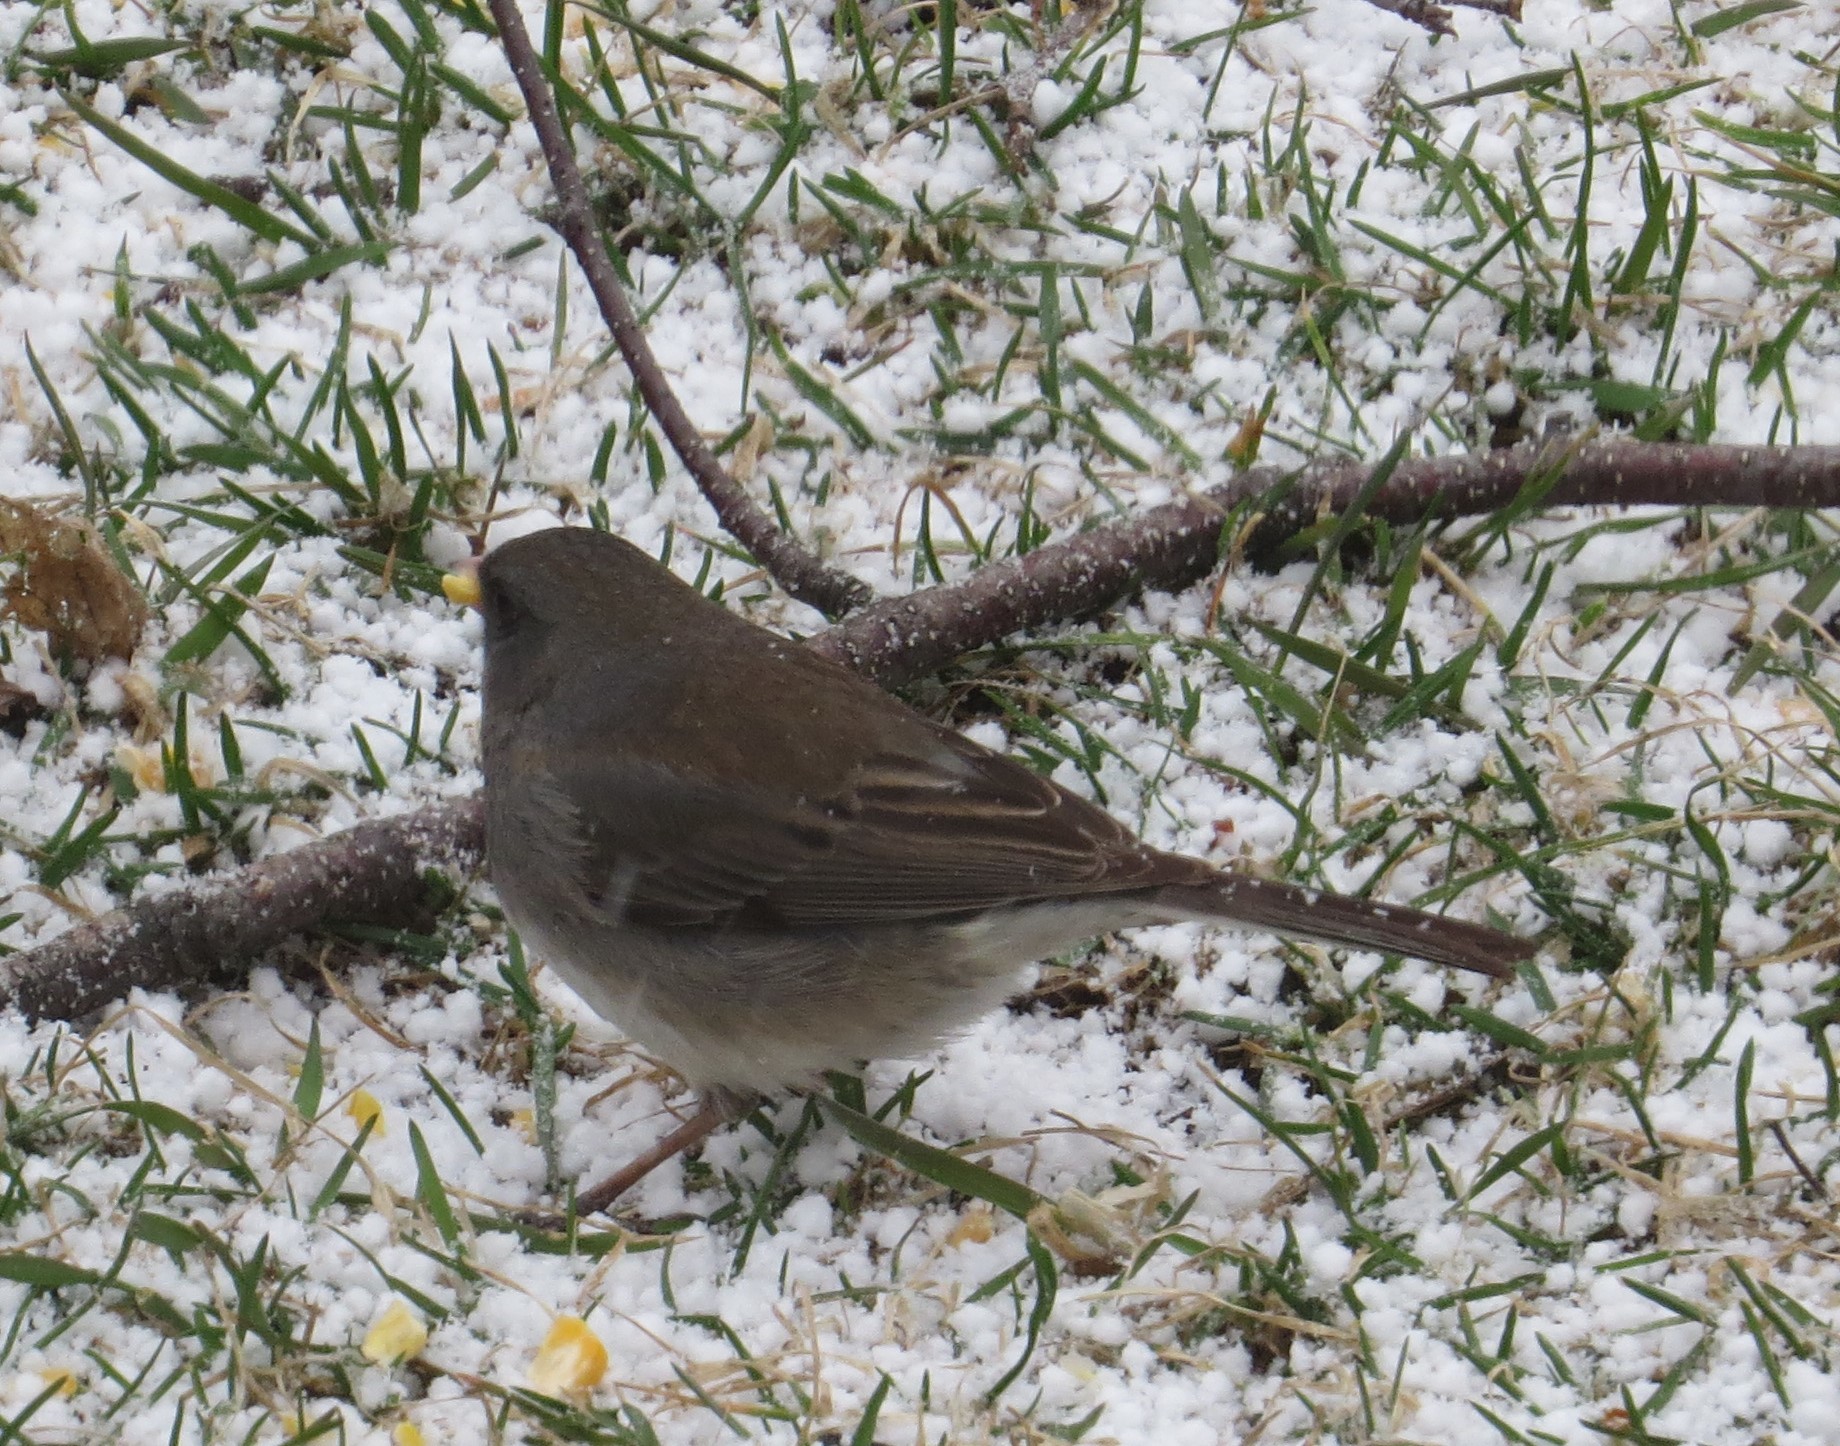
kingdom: Animalia
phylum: Chordata
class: Aves
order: Passeriformes
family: Passerellidae
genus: Junco
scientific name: Junco hyemalis
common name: Dark-eyed junco
